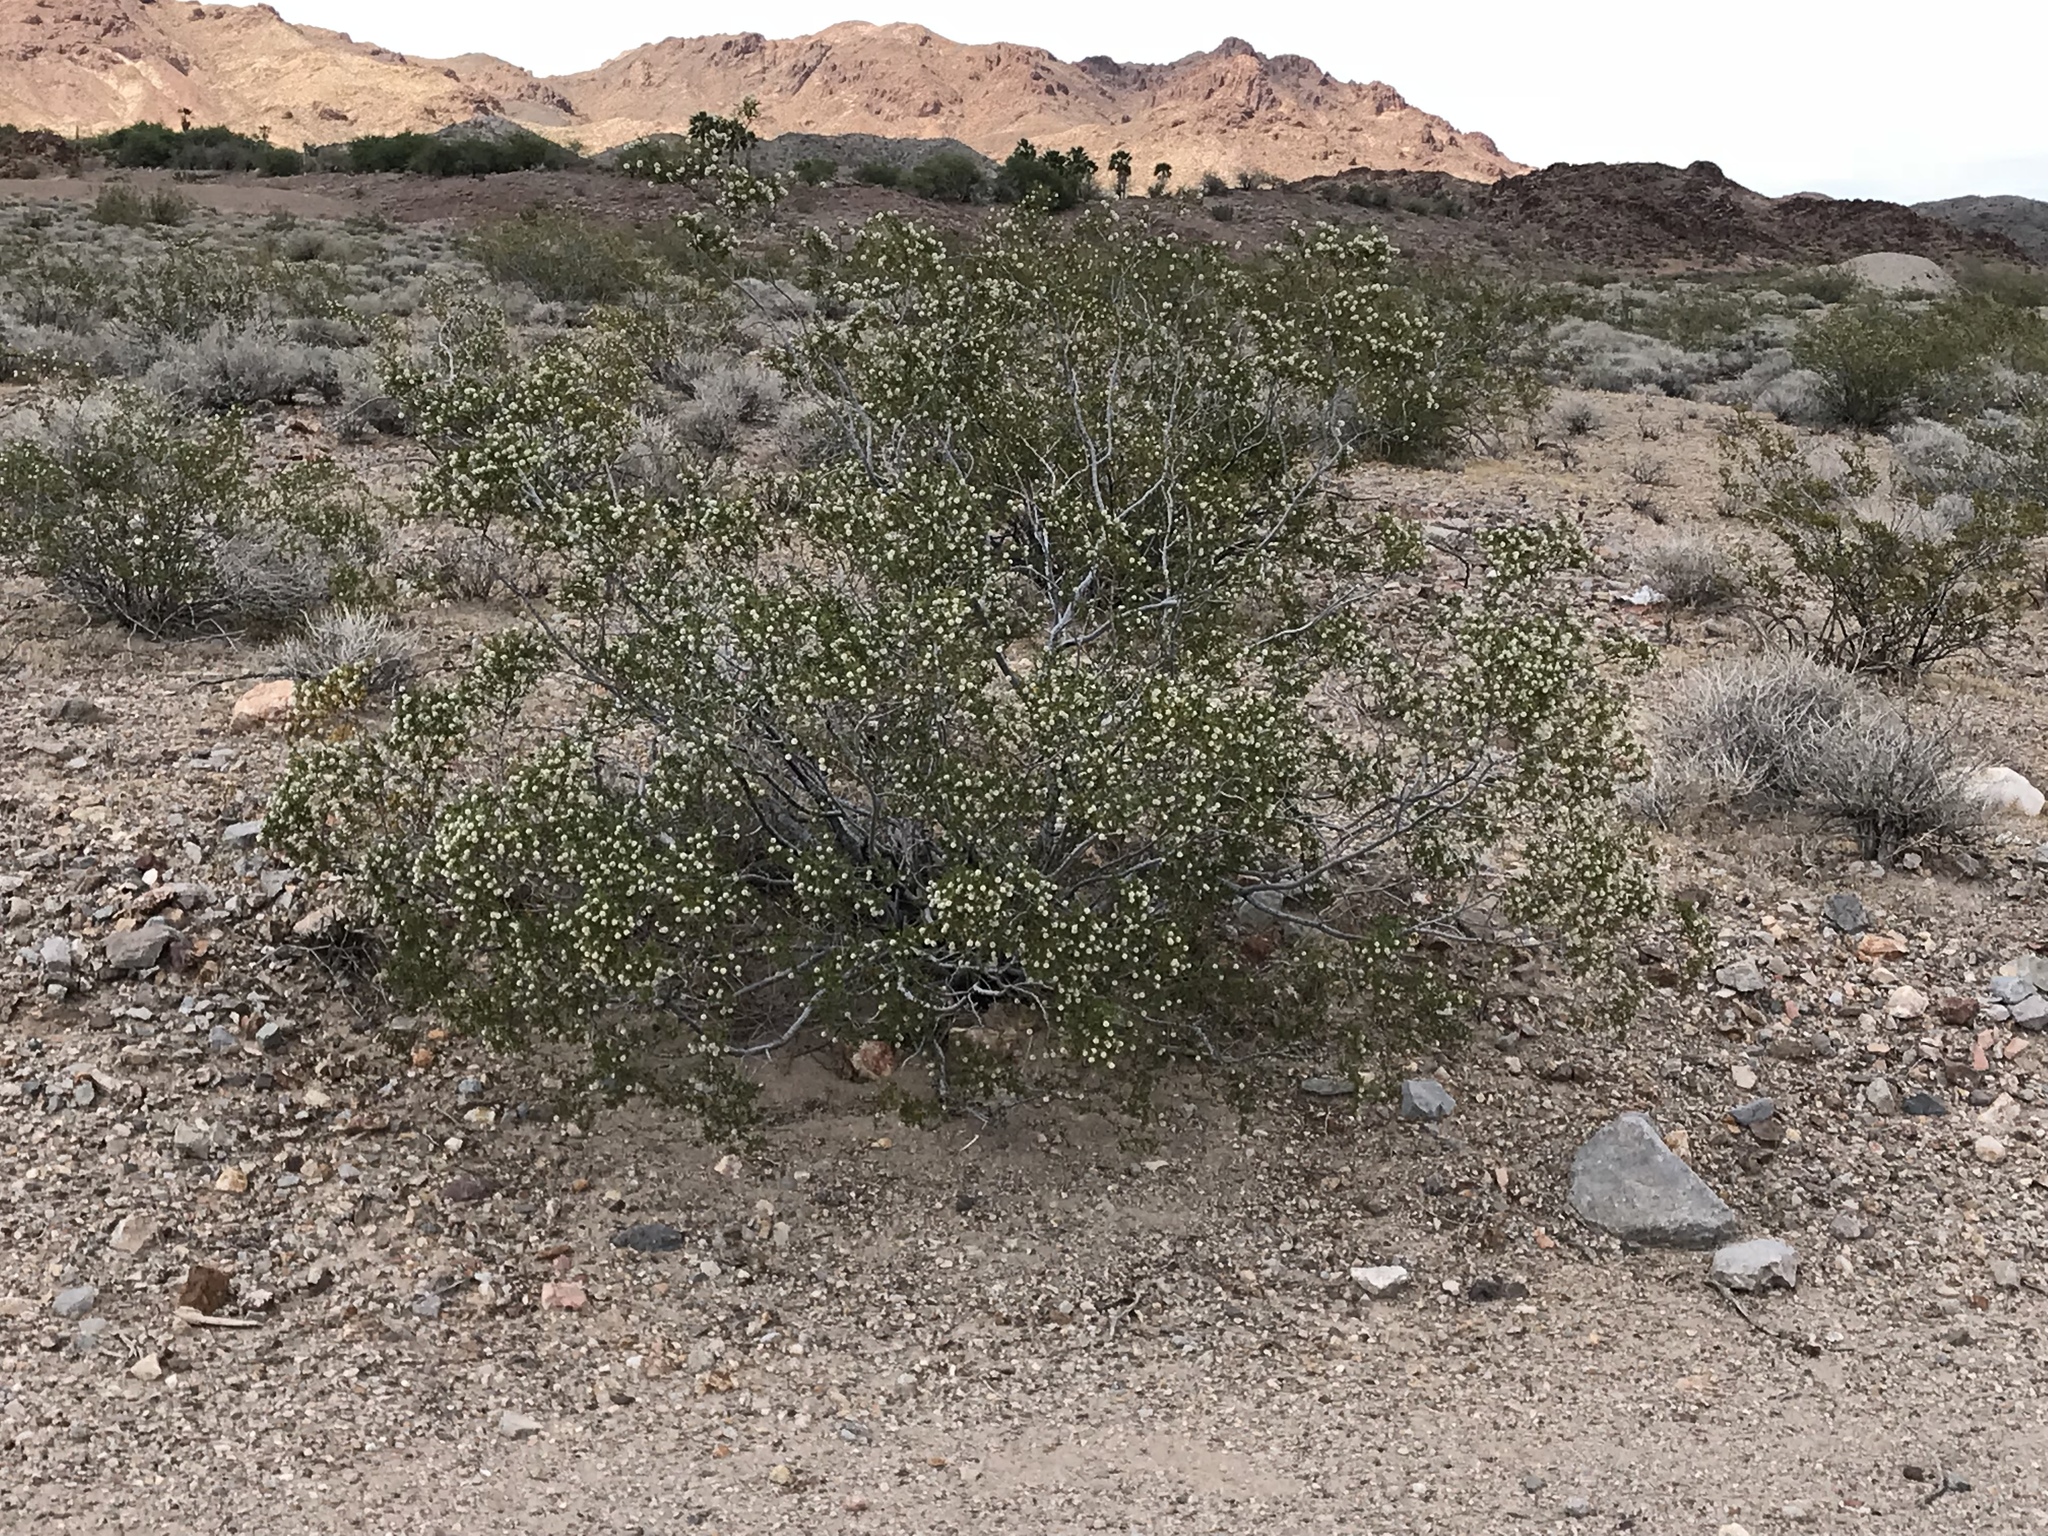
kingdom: Plantae
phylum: Tracheophyta
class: Magnoliopsida
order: Zygophyllales
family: Zygophyllaceae
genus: Larrea
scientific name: Larrea tridentata
